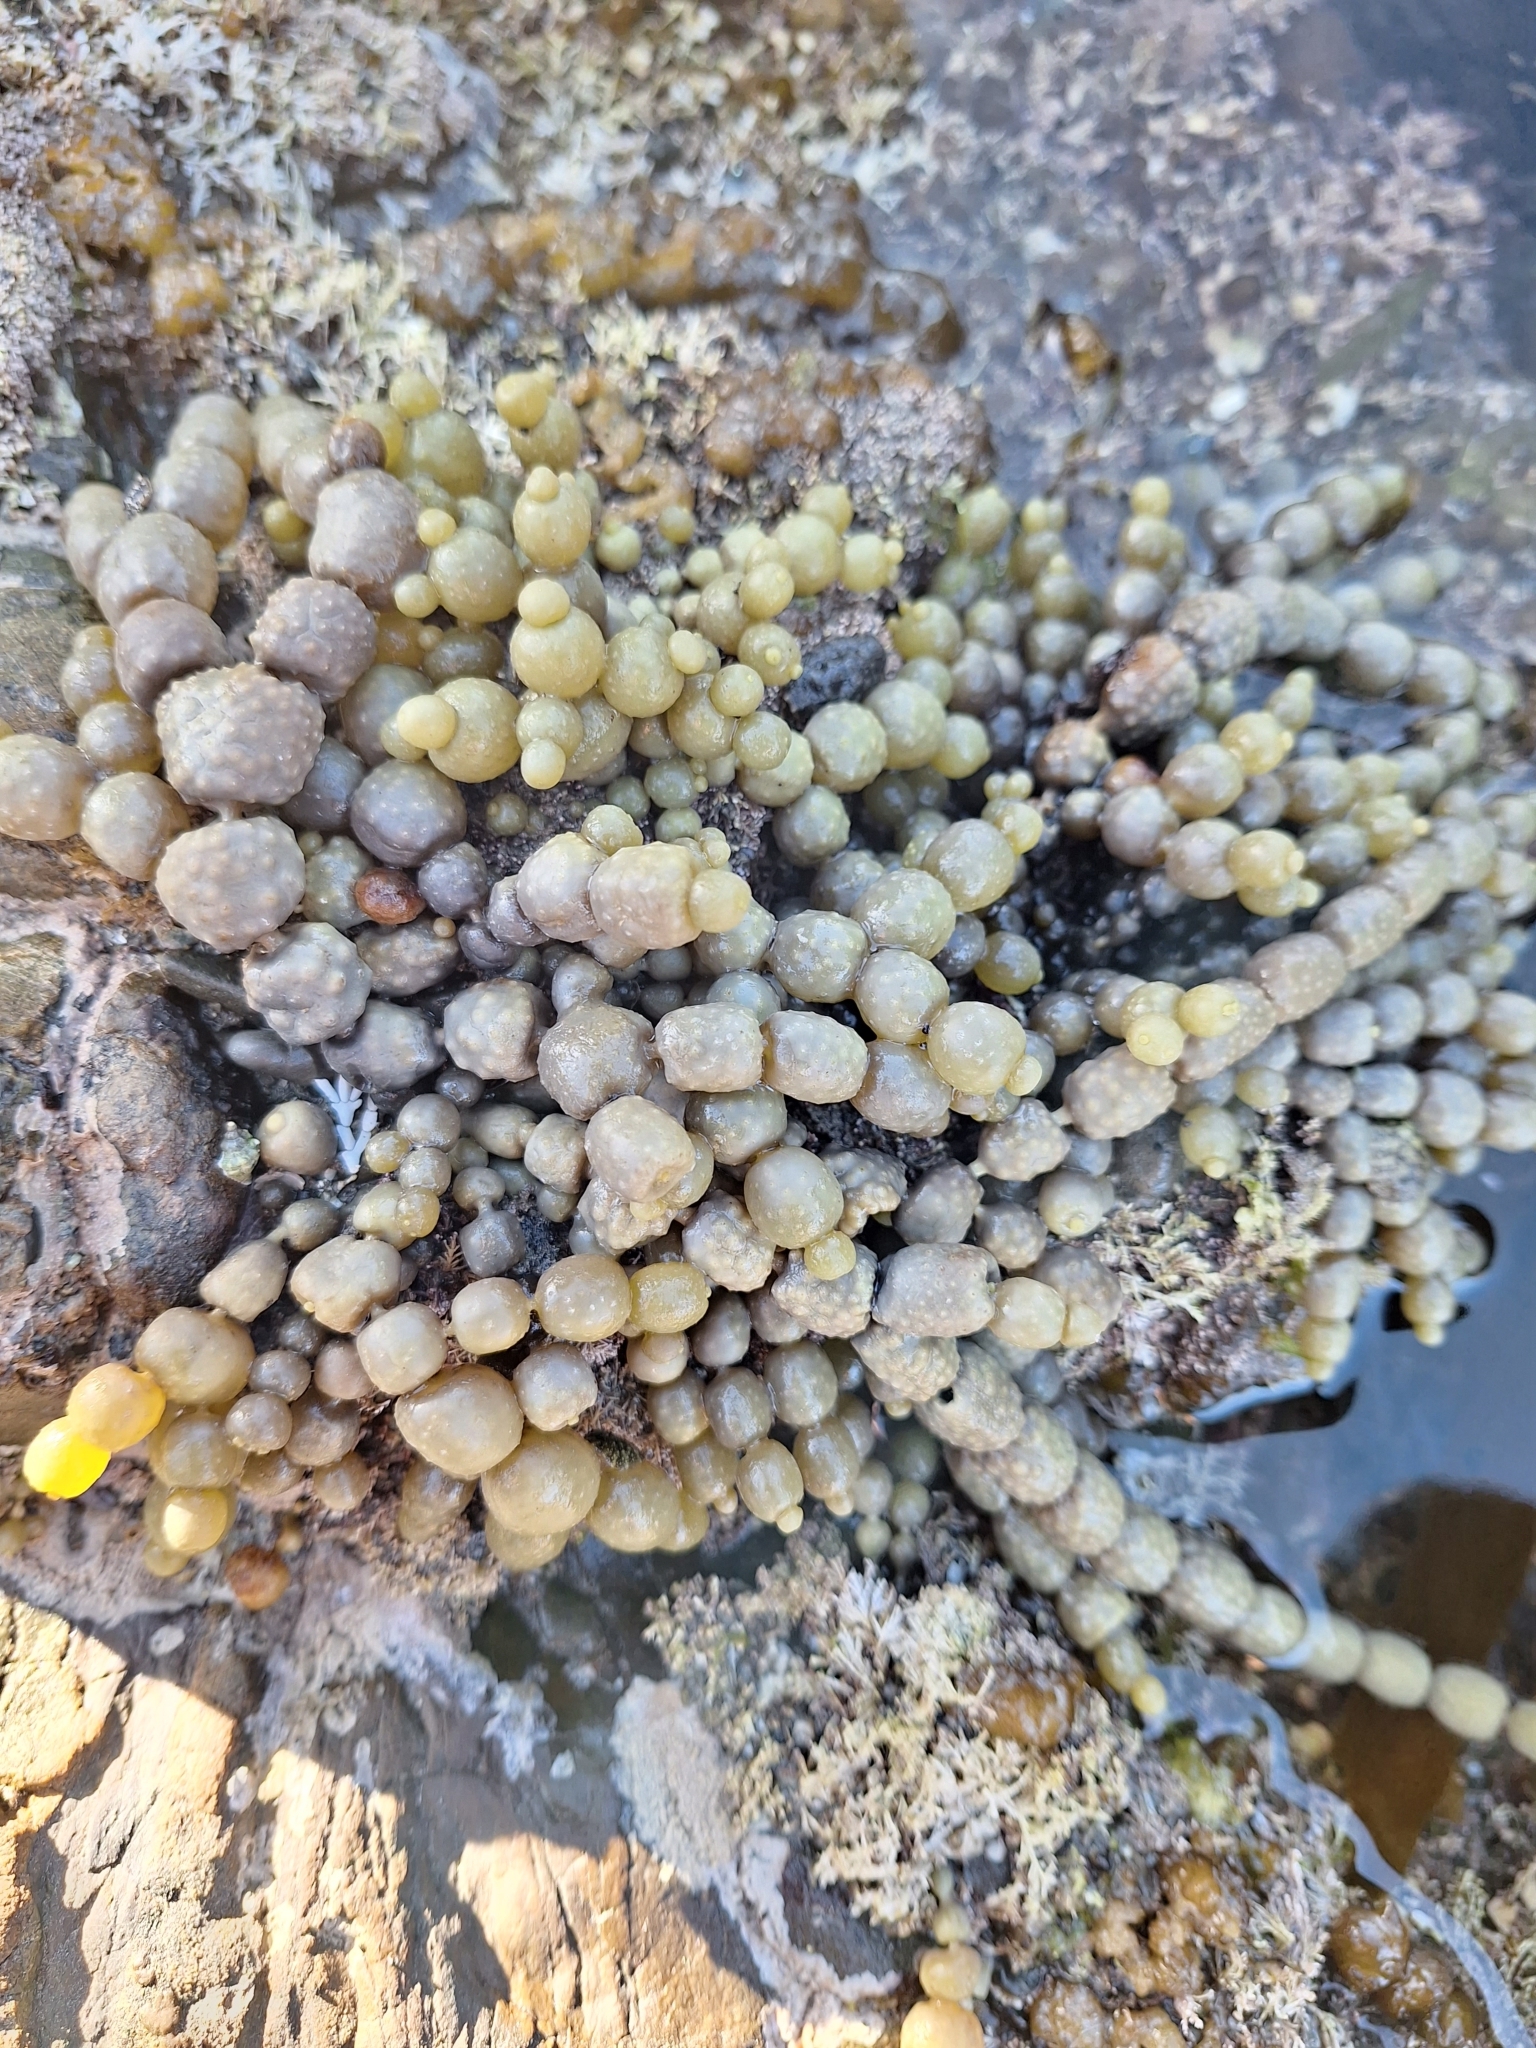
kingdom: Chromista
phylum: Ochrophyta
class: Phaeophyceae
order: Fucales
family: Hormosiraceae
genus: Hormosira
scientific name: Hormosira banksii
